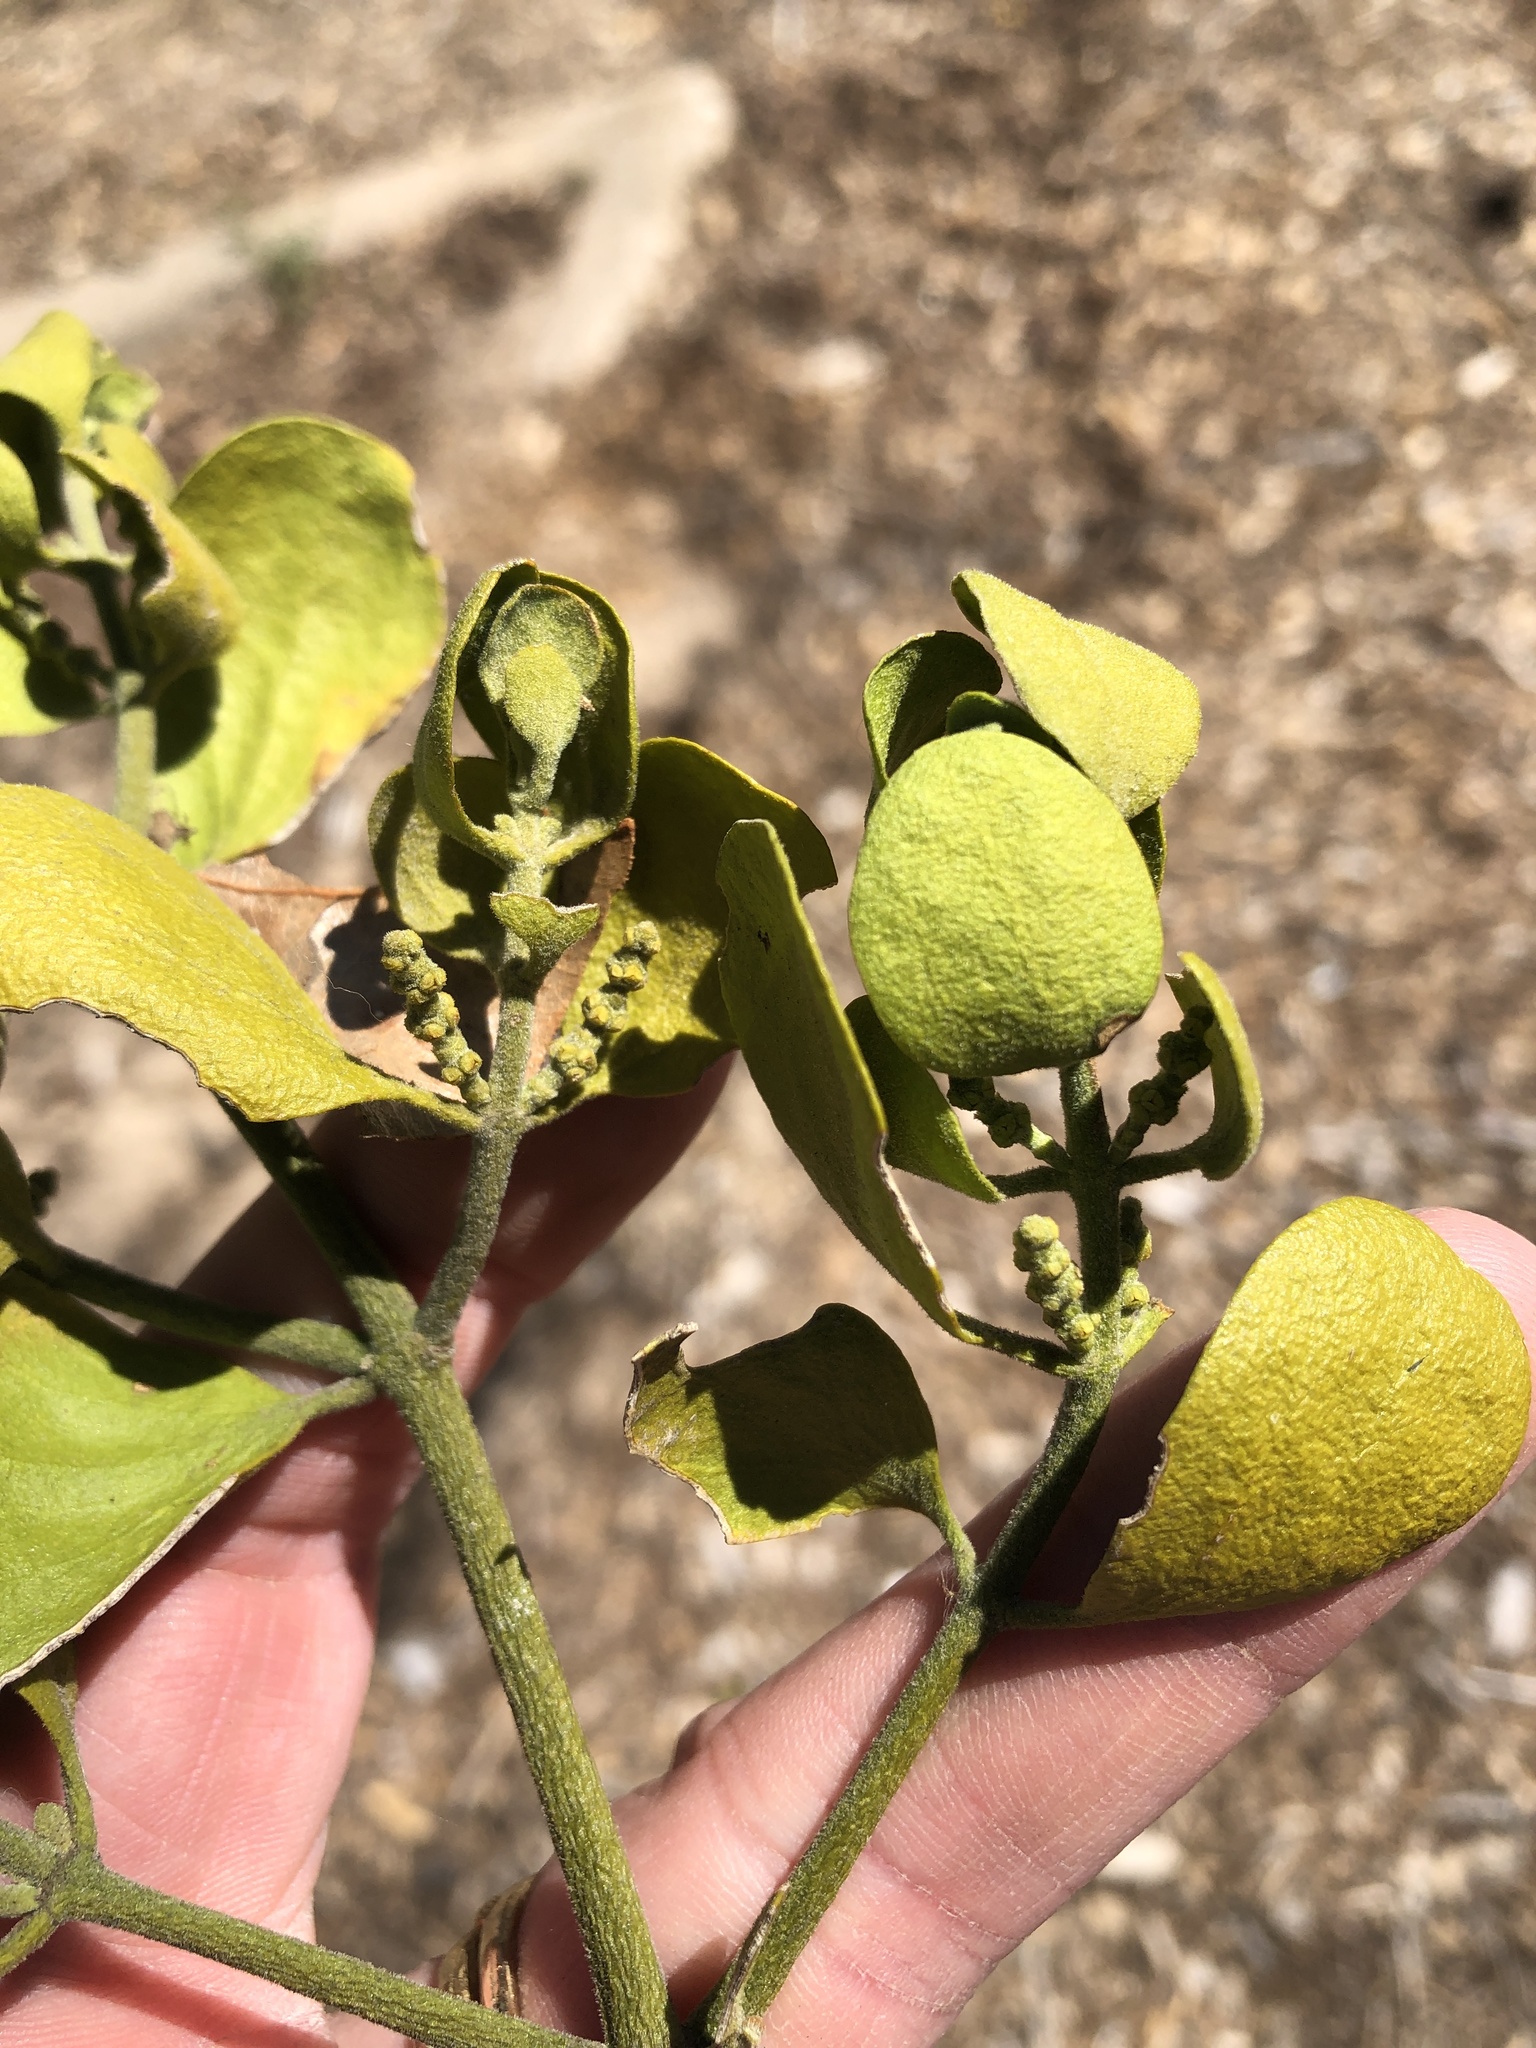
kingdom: Plantae
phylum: Tracheophyta
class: Magnoliopsida
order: Santalales
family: Viscaceae
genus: Phoradendron
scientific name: Phoradendron leucarpum
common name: Pacific mistletoe
